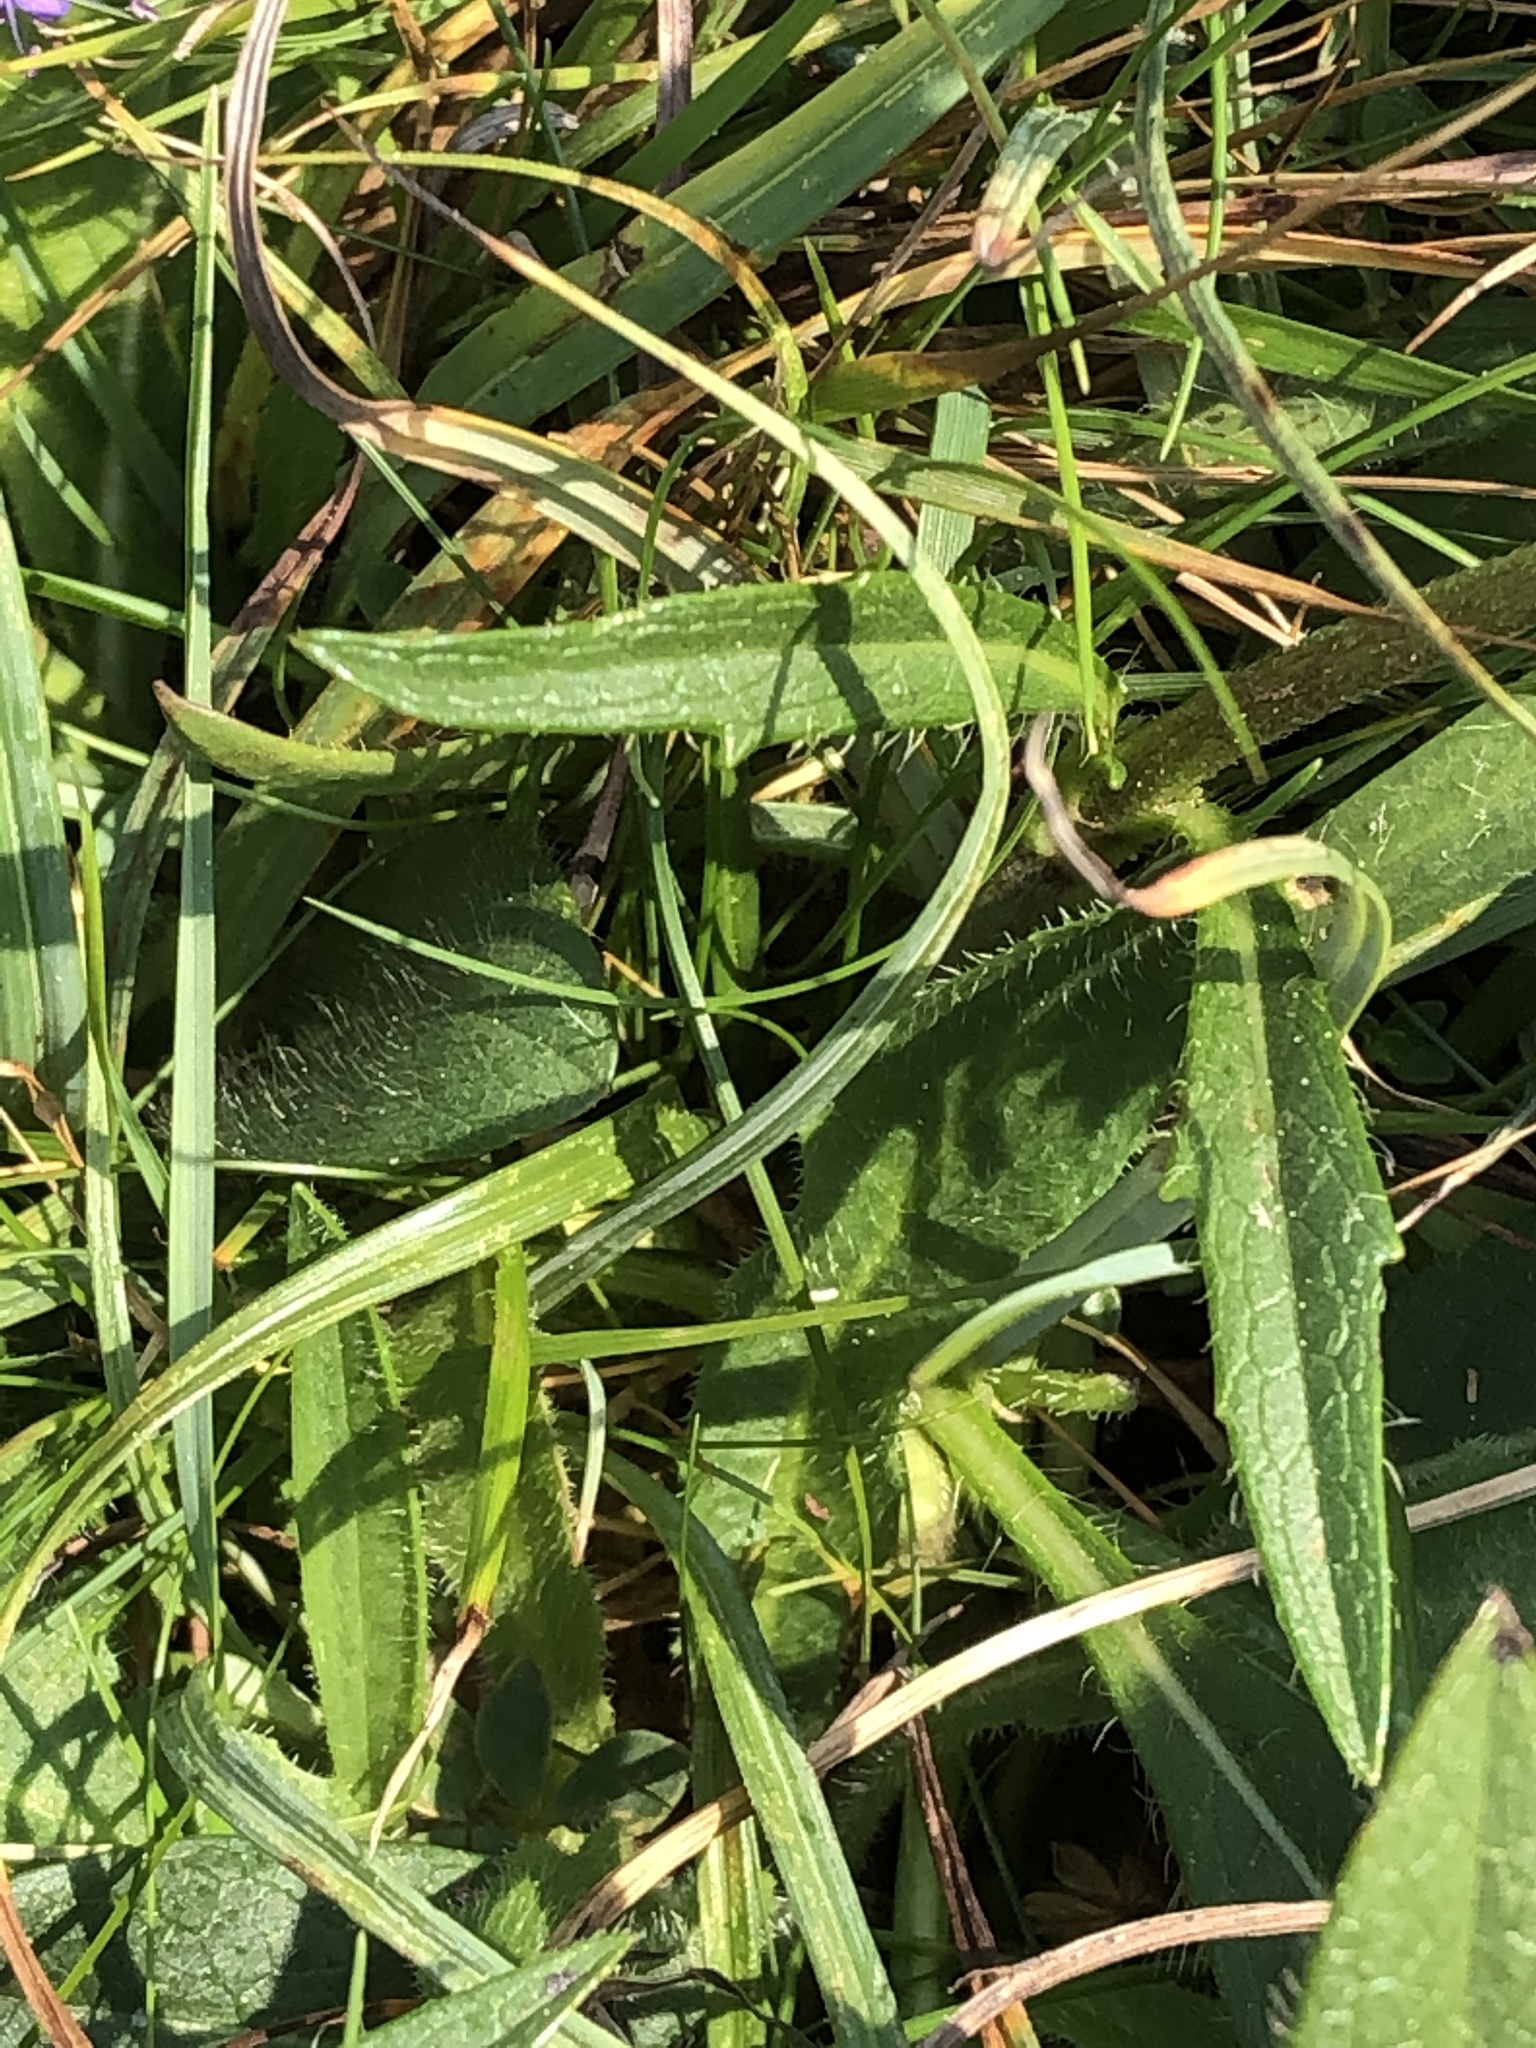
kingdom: Plantae
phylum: Tracheophyta
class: Magnoliopsida
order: Dipsacales
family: Caprifoliaceae
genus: Succisa
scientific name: Succisa pratensis
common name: Devil's-bit
